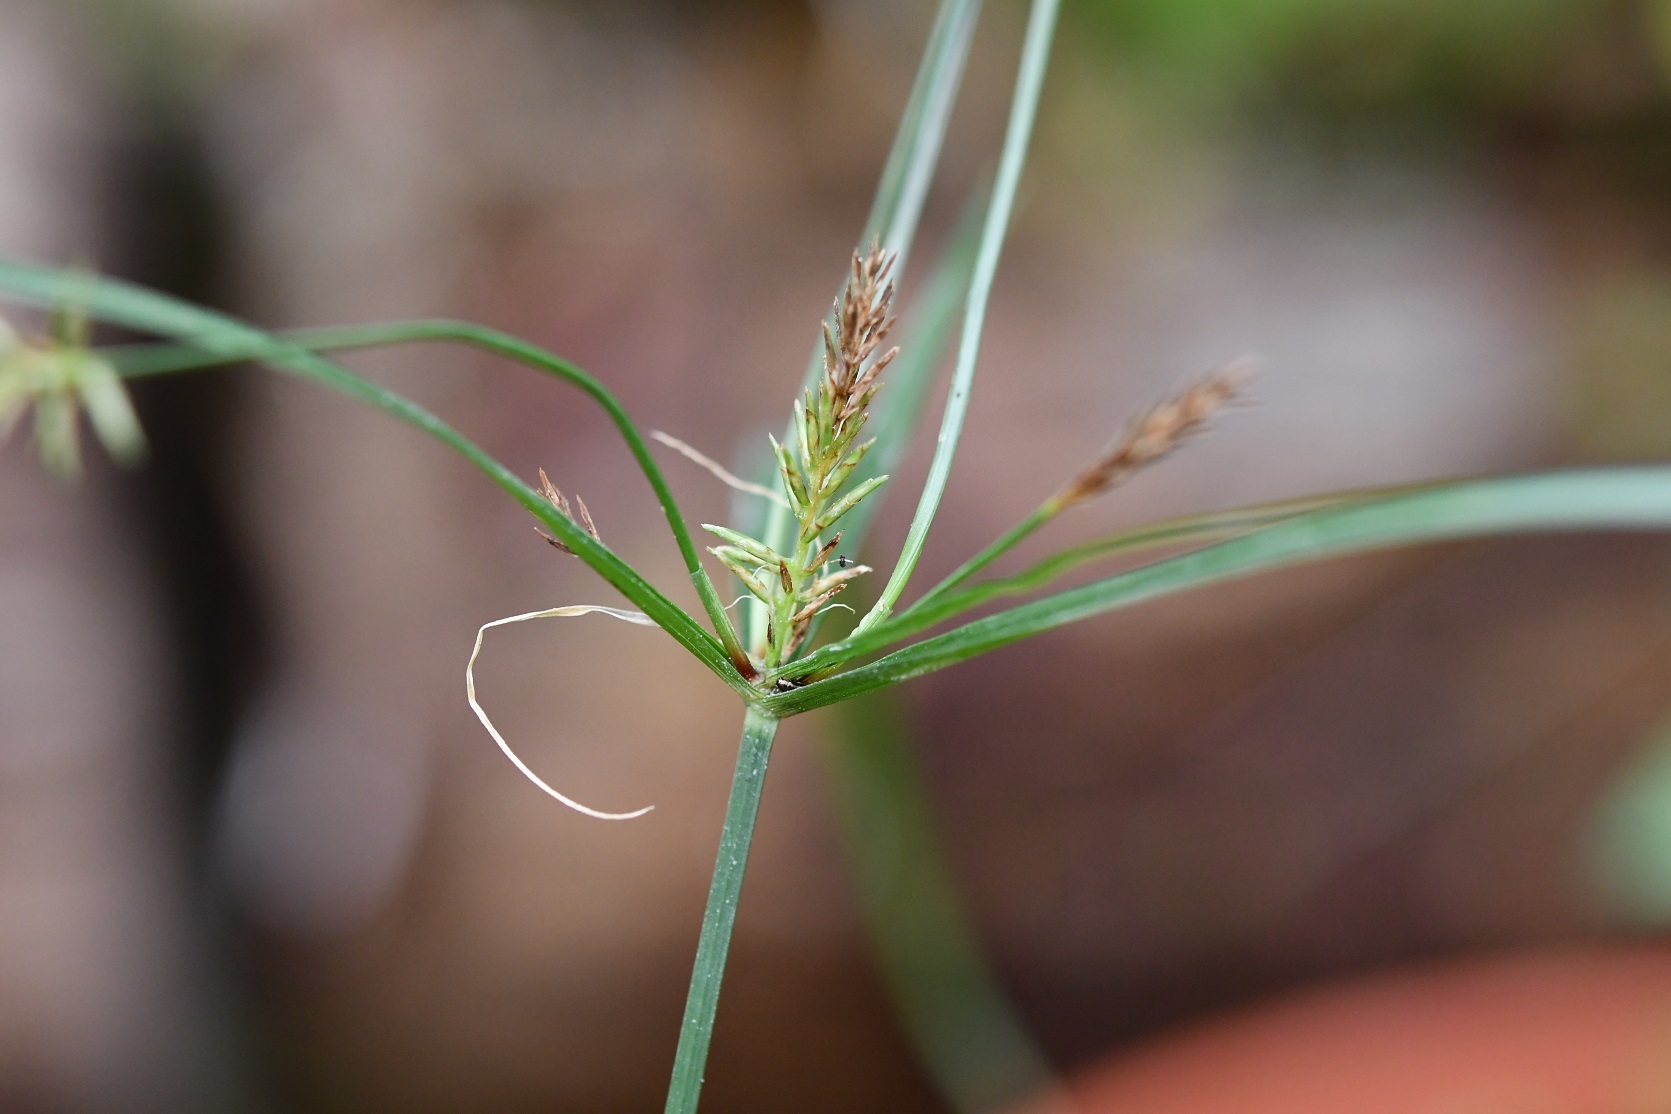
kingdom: Plantae
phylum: Tracheophyta
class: Liliopsida
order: Poales
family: Cyperaceae
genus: Cyperus
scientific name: Cyperus hermaphroditus
